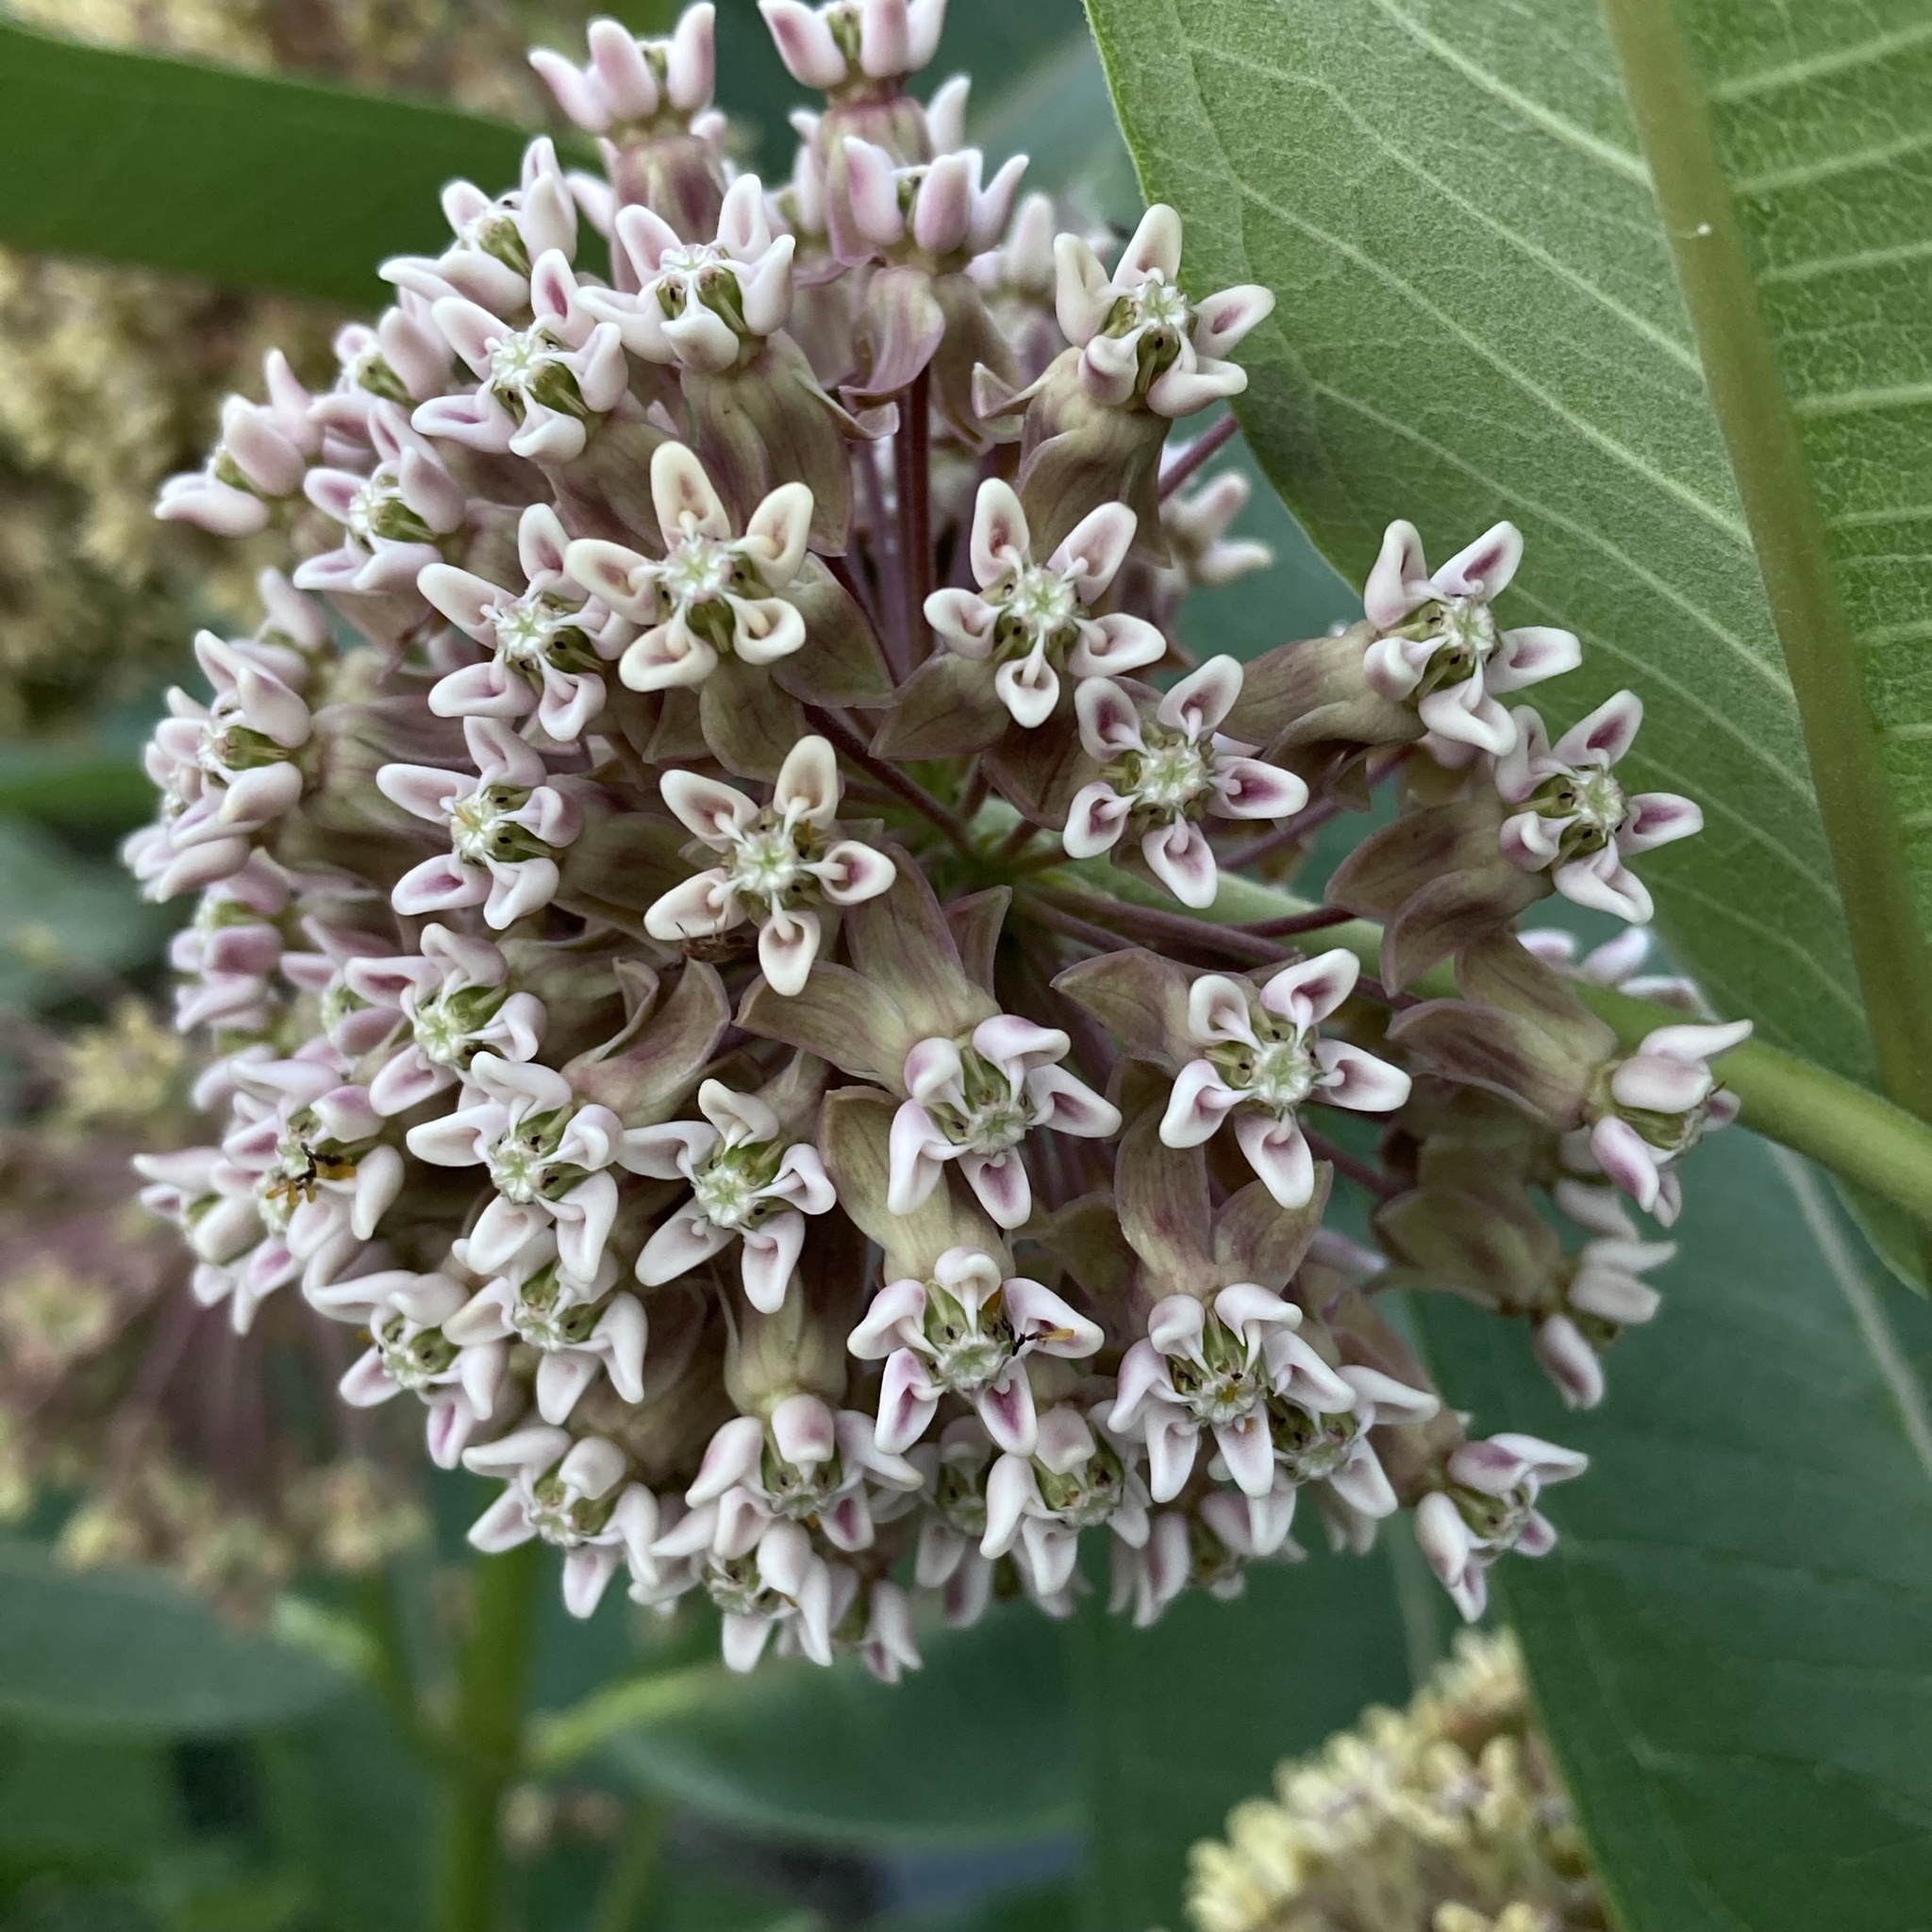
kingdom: Plantae
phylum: Tracheophyta
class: Magnoliopsida
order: Gentianales
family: Apocynaceae
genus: Asclepias
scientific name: Asclepias syriaca
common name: Common milkweed
